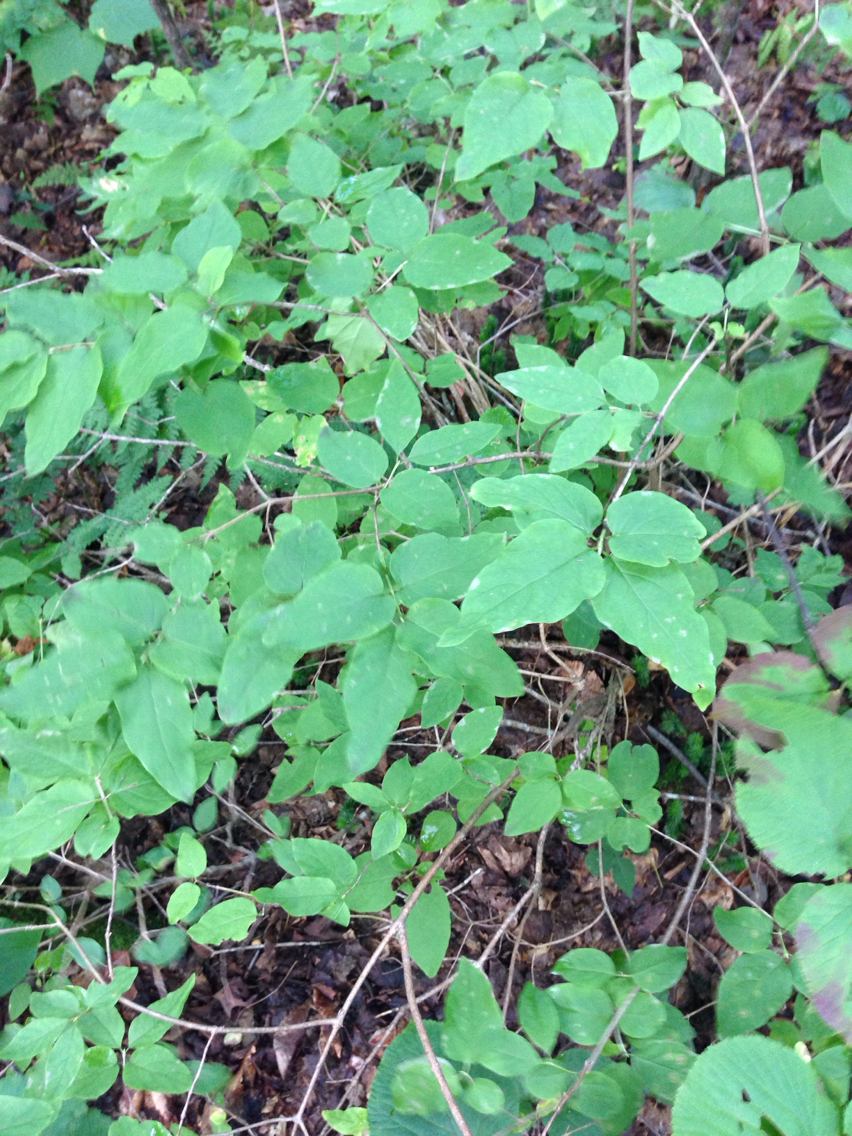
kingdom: Plantae
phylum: Tracheophyta
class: Magnoliopsida
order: Dipsacales
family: Caprifoliaceae
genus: Lonicera
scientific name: Lonicera canadensis
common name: American fly-honeysuckle
